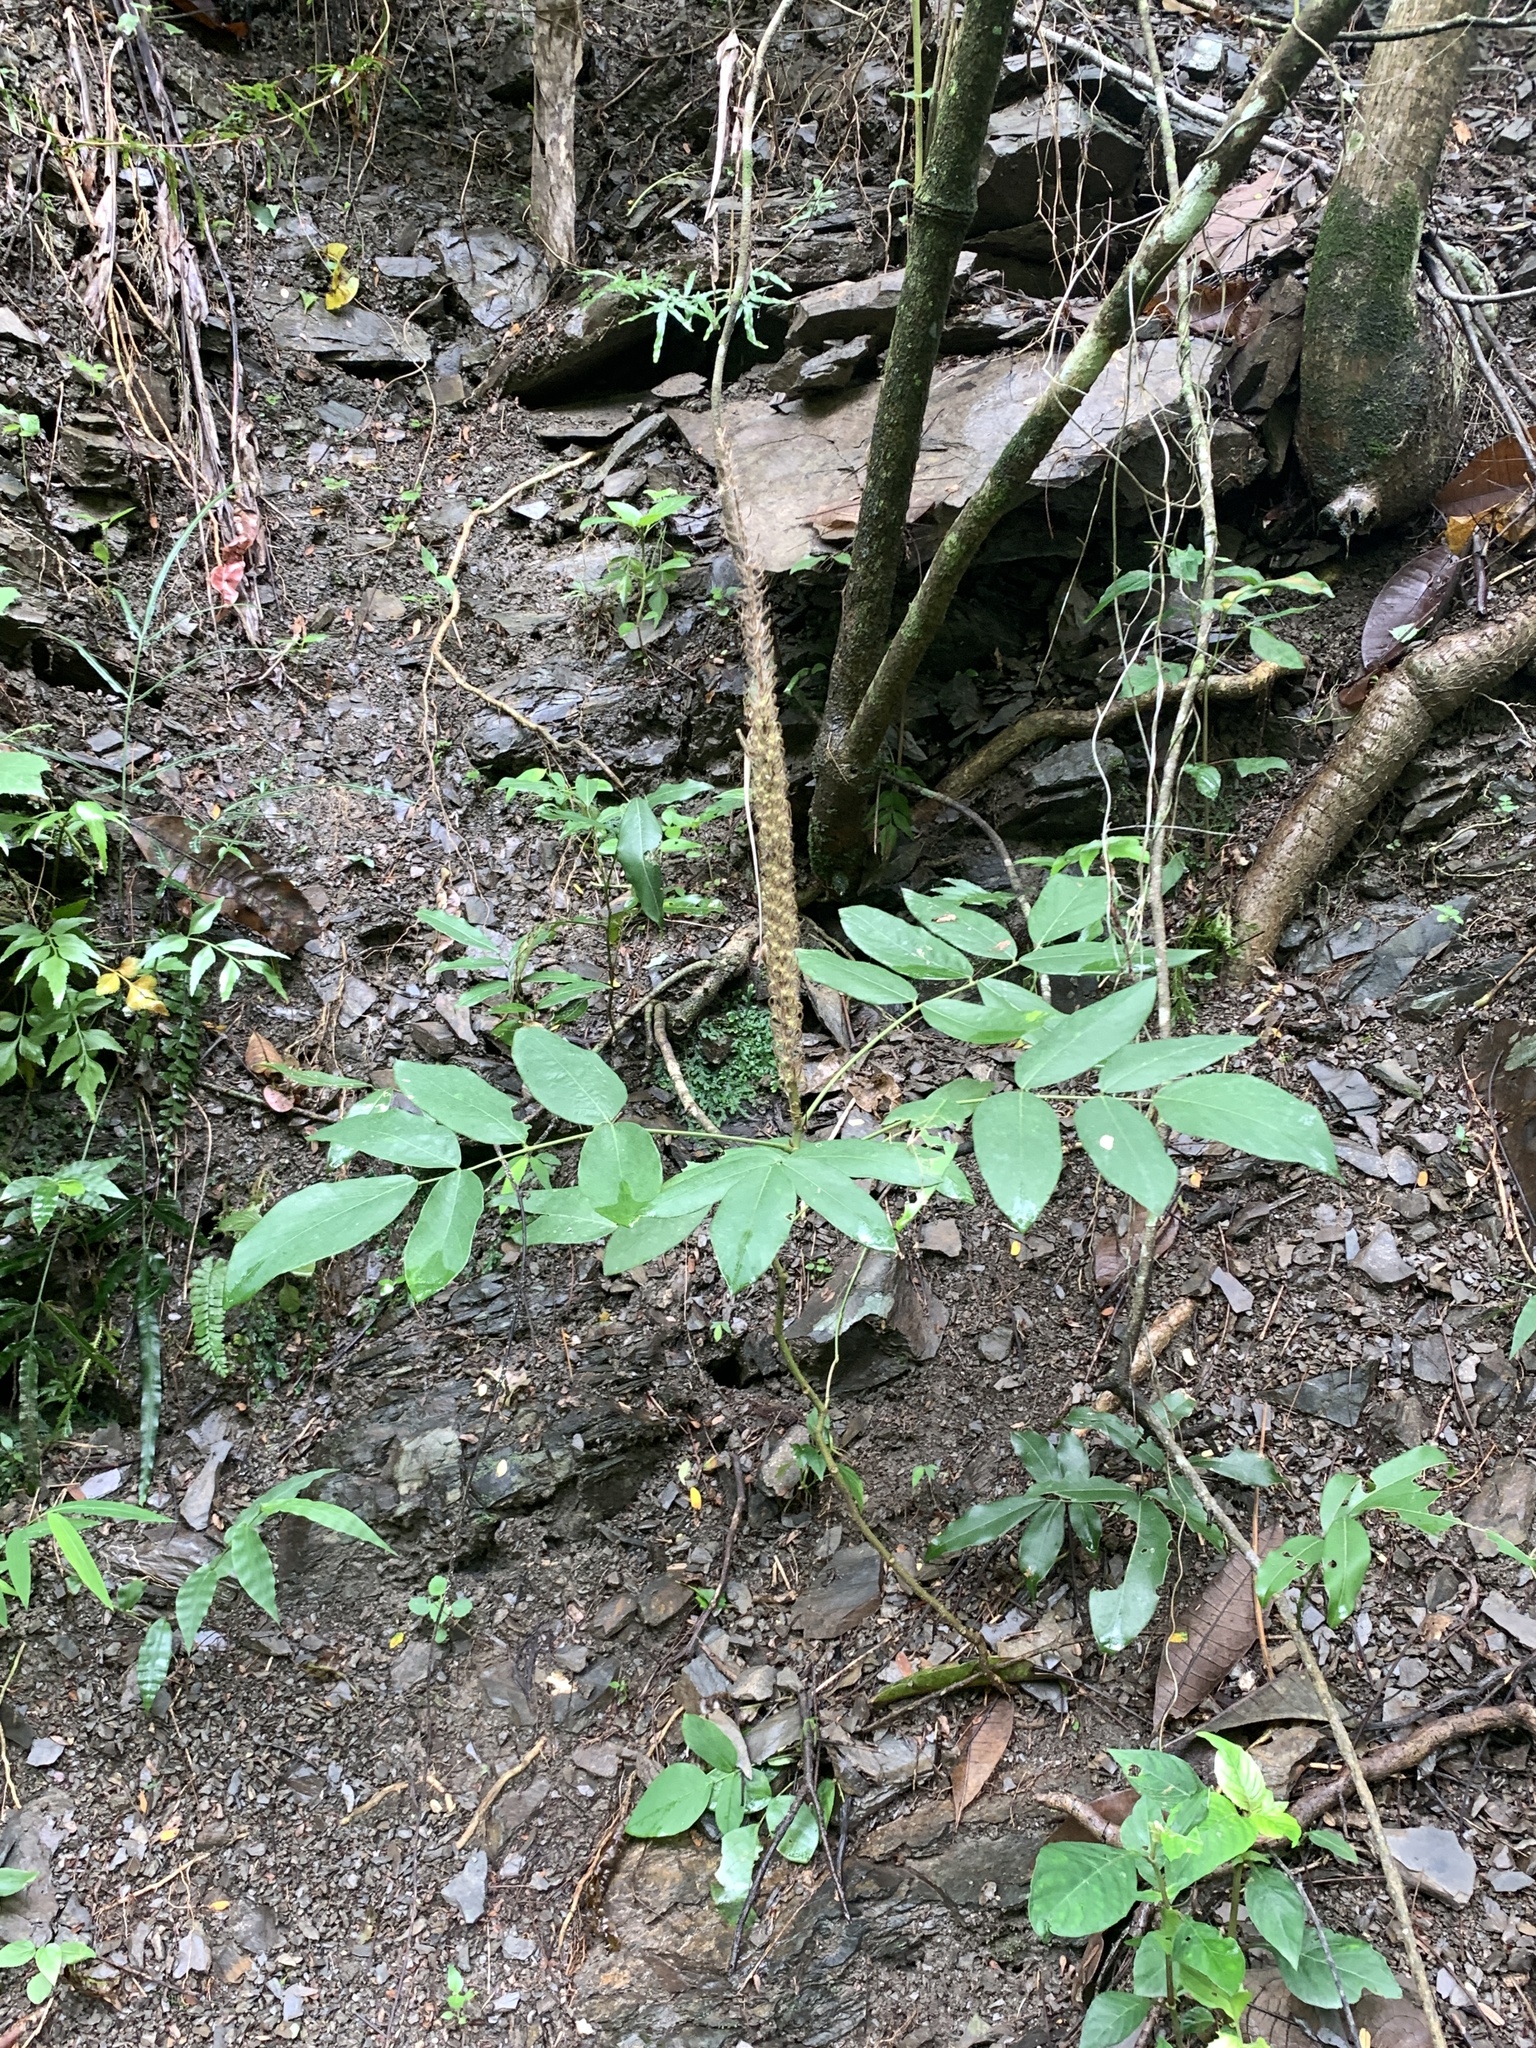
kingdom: Plantae
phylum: Tracheophyta
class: Magnoliopsida
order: Fabales
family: Fabaceae
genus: Uraria
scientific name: Uraria crinita
